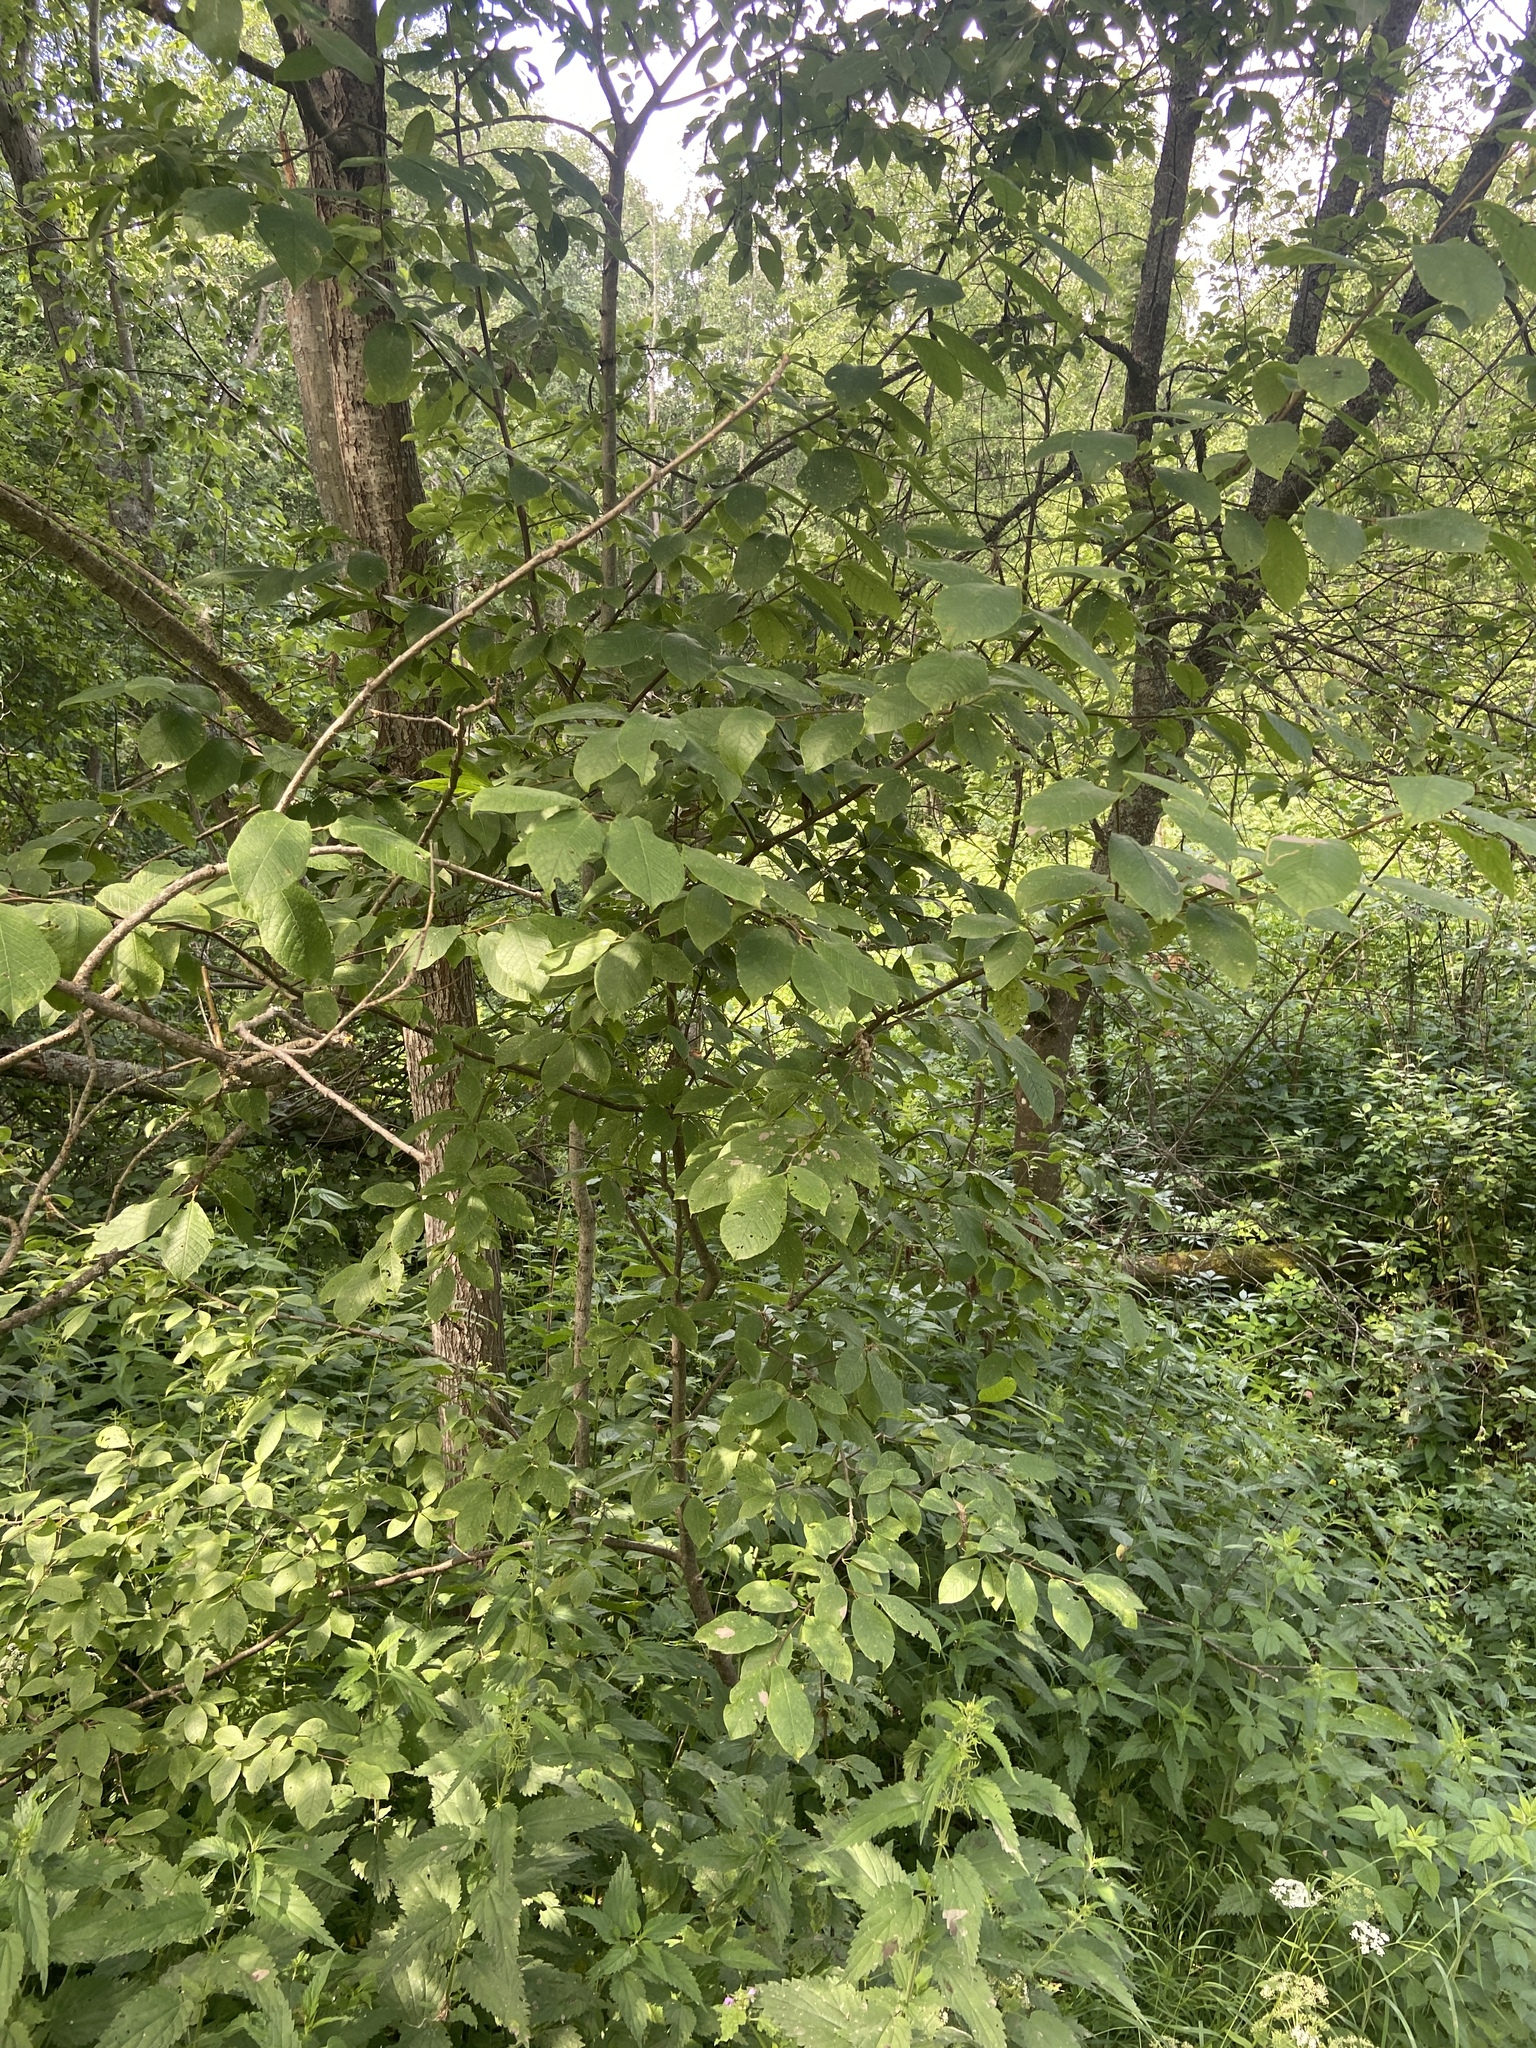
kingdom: Plantae
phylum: Tracheophyta
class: Magnoliopsida
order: Rosales
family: Rosaceae
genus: Prunus
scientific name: Prunus padus
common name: Bird cherry
